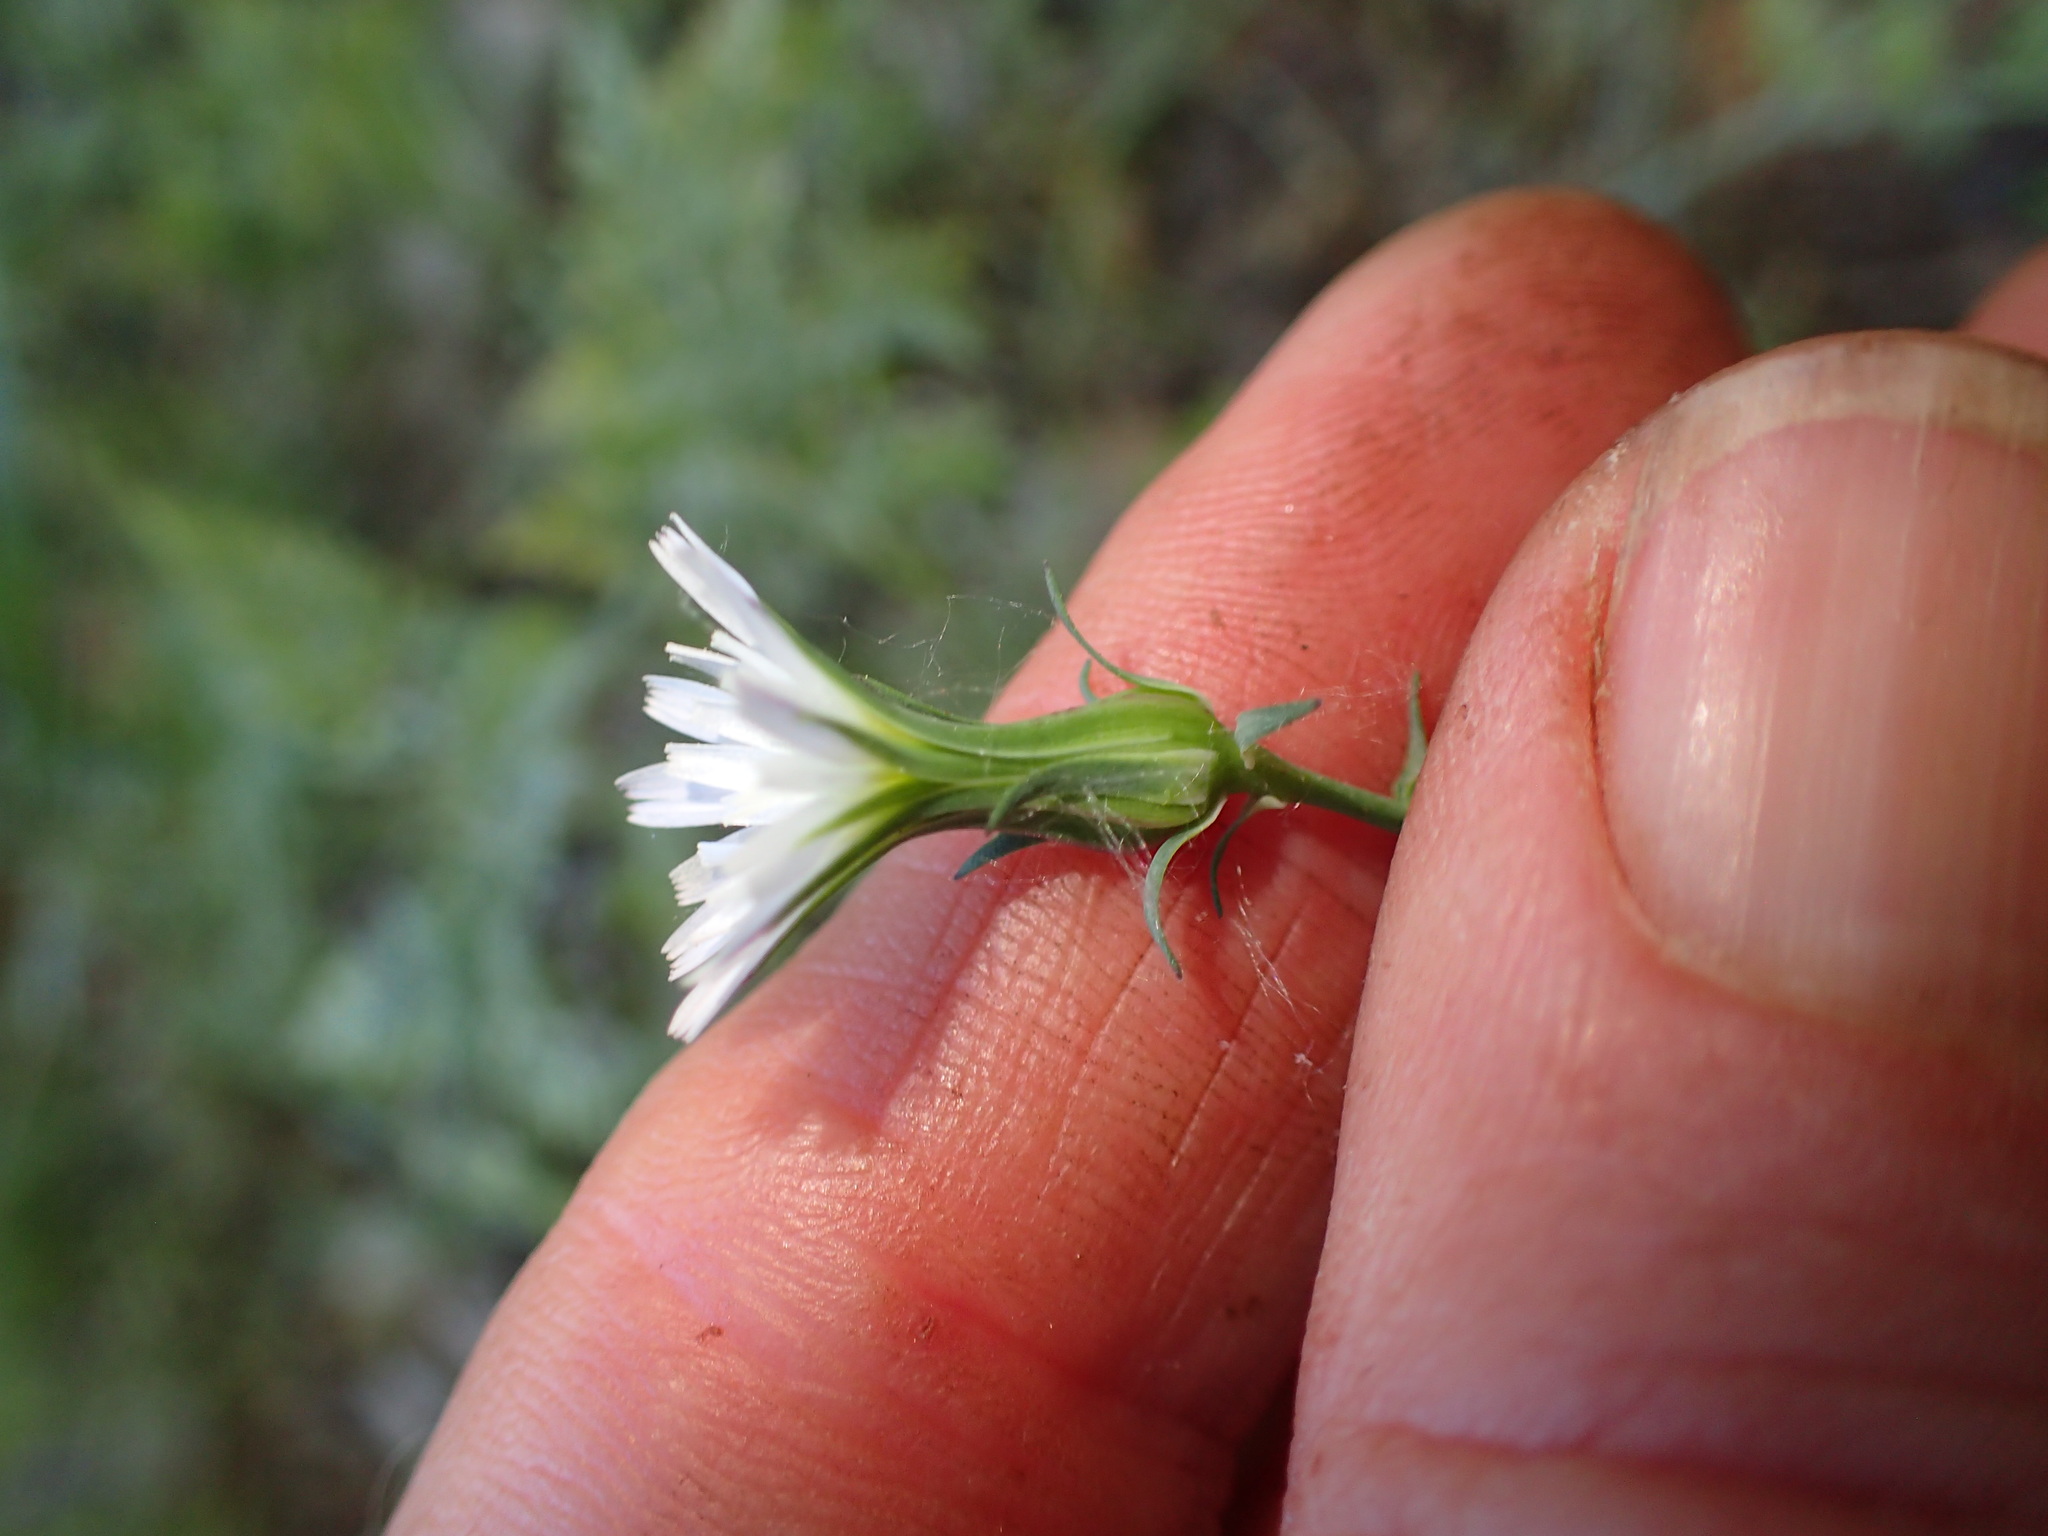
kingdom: Plantae
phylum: Tracheophyta
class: Magnoliopsida
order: Asterales
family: Asteraceae
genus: Rafinesquia
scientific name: Rafinesquia californica
